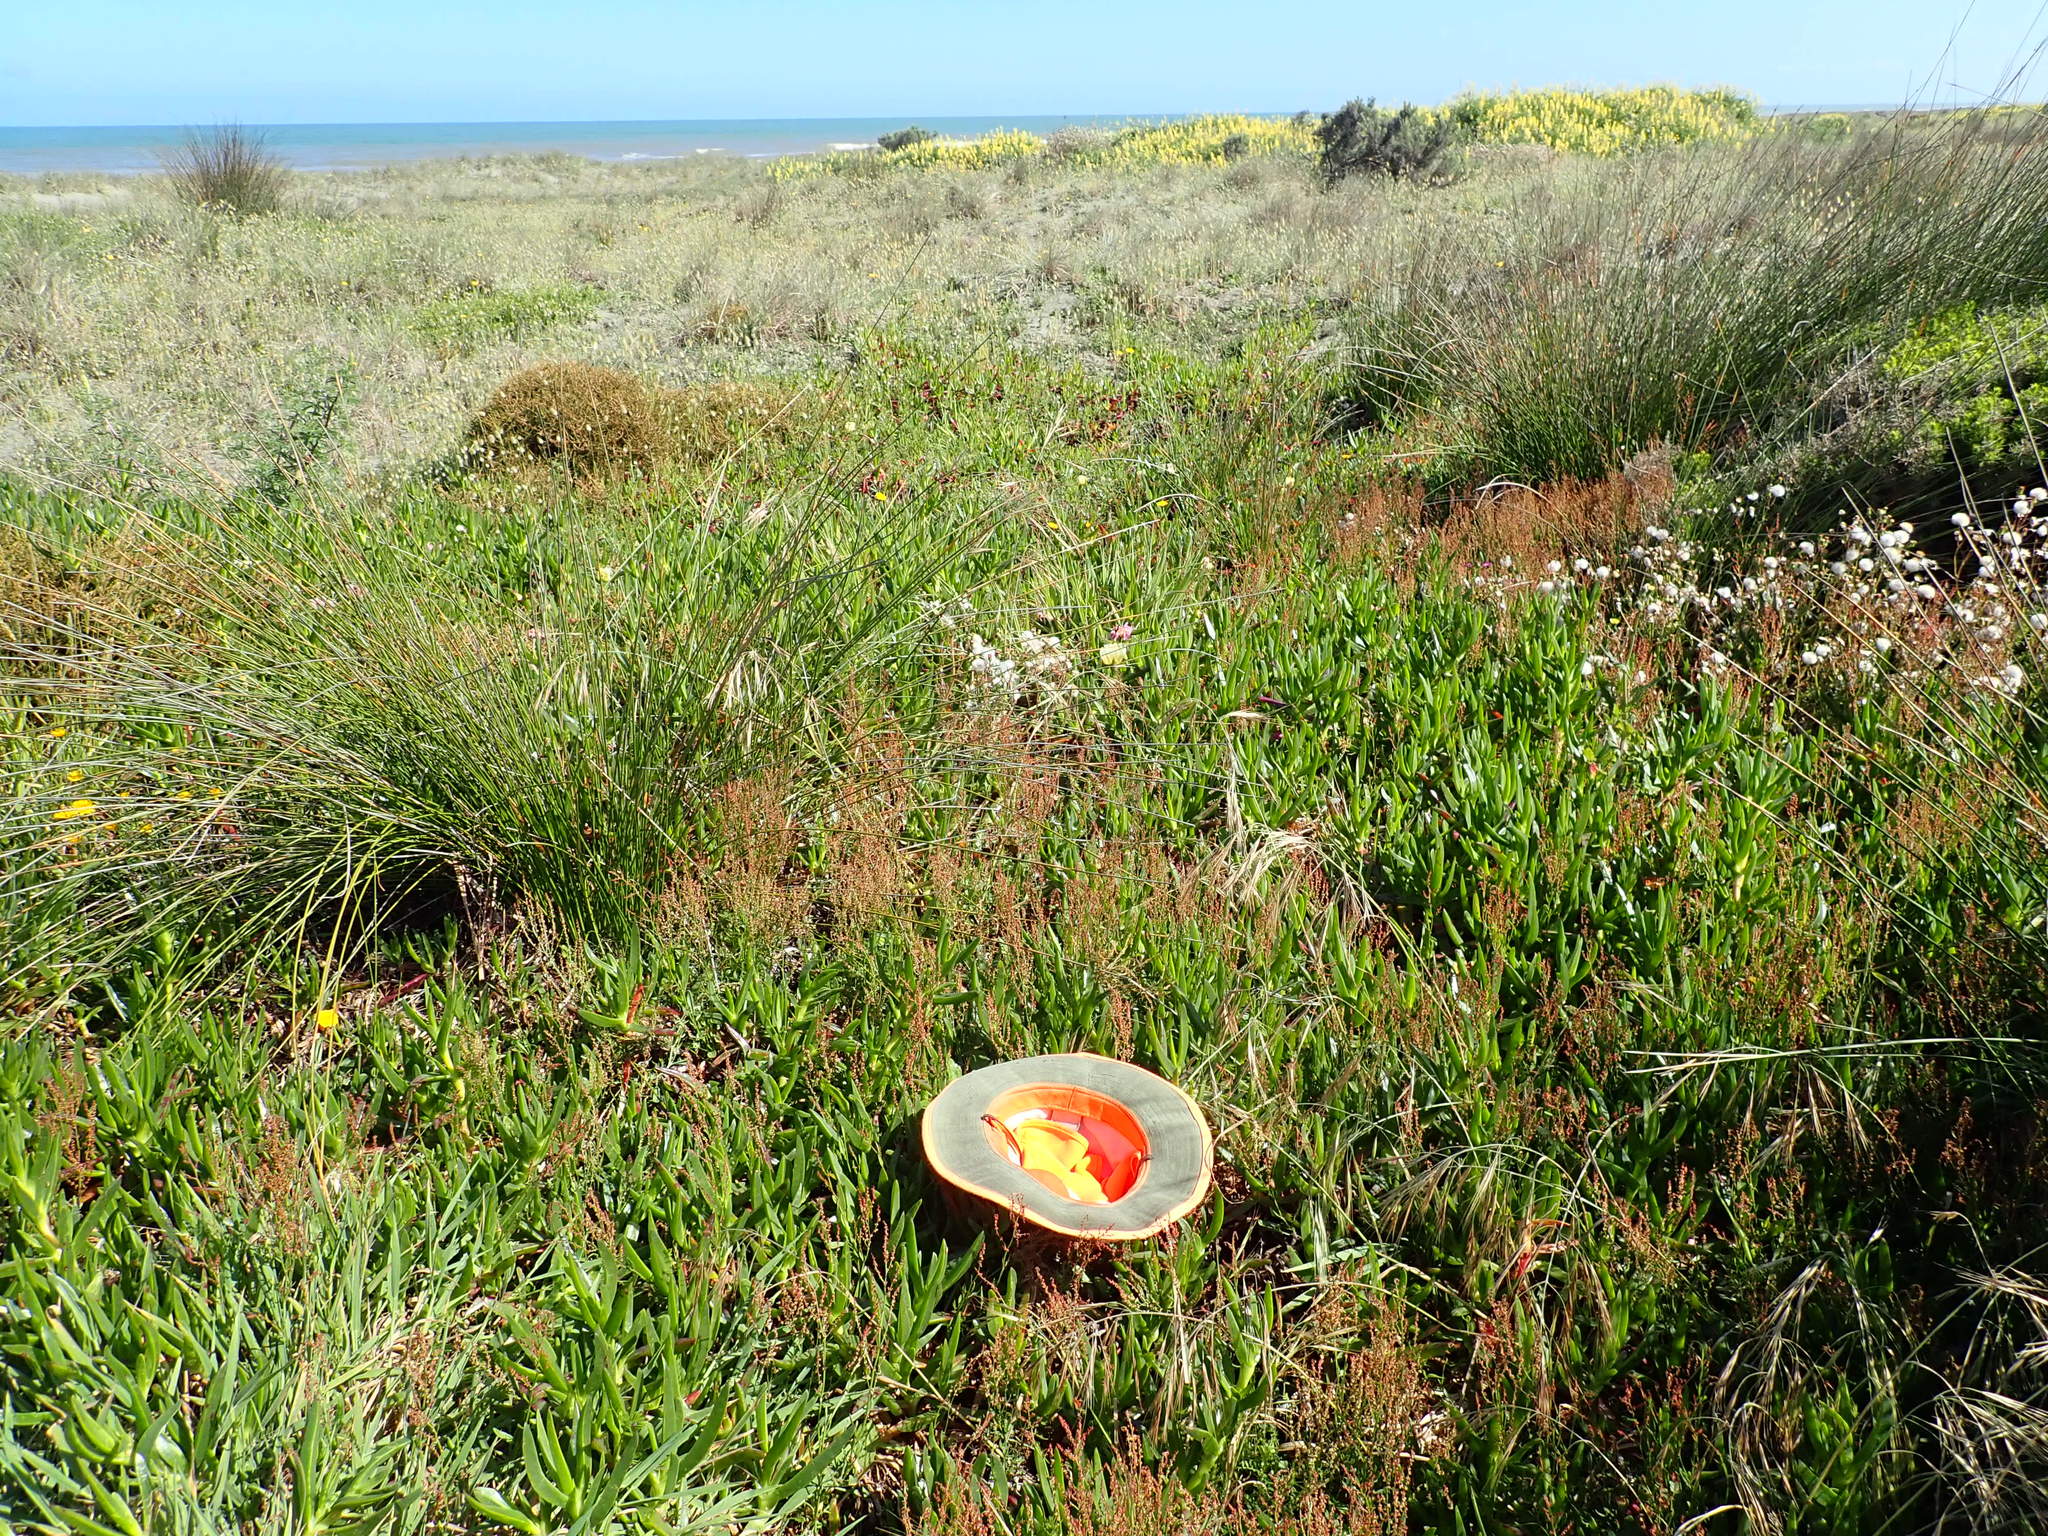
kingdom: Plantae
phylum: Tracheophyta
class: Magnoliopsida
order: Caryophyllales
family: Polygonaceae
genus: Rumex
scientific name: Rumex acetosella
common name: Common sheep sorrel
